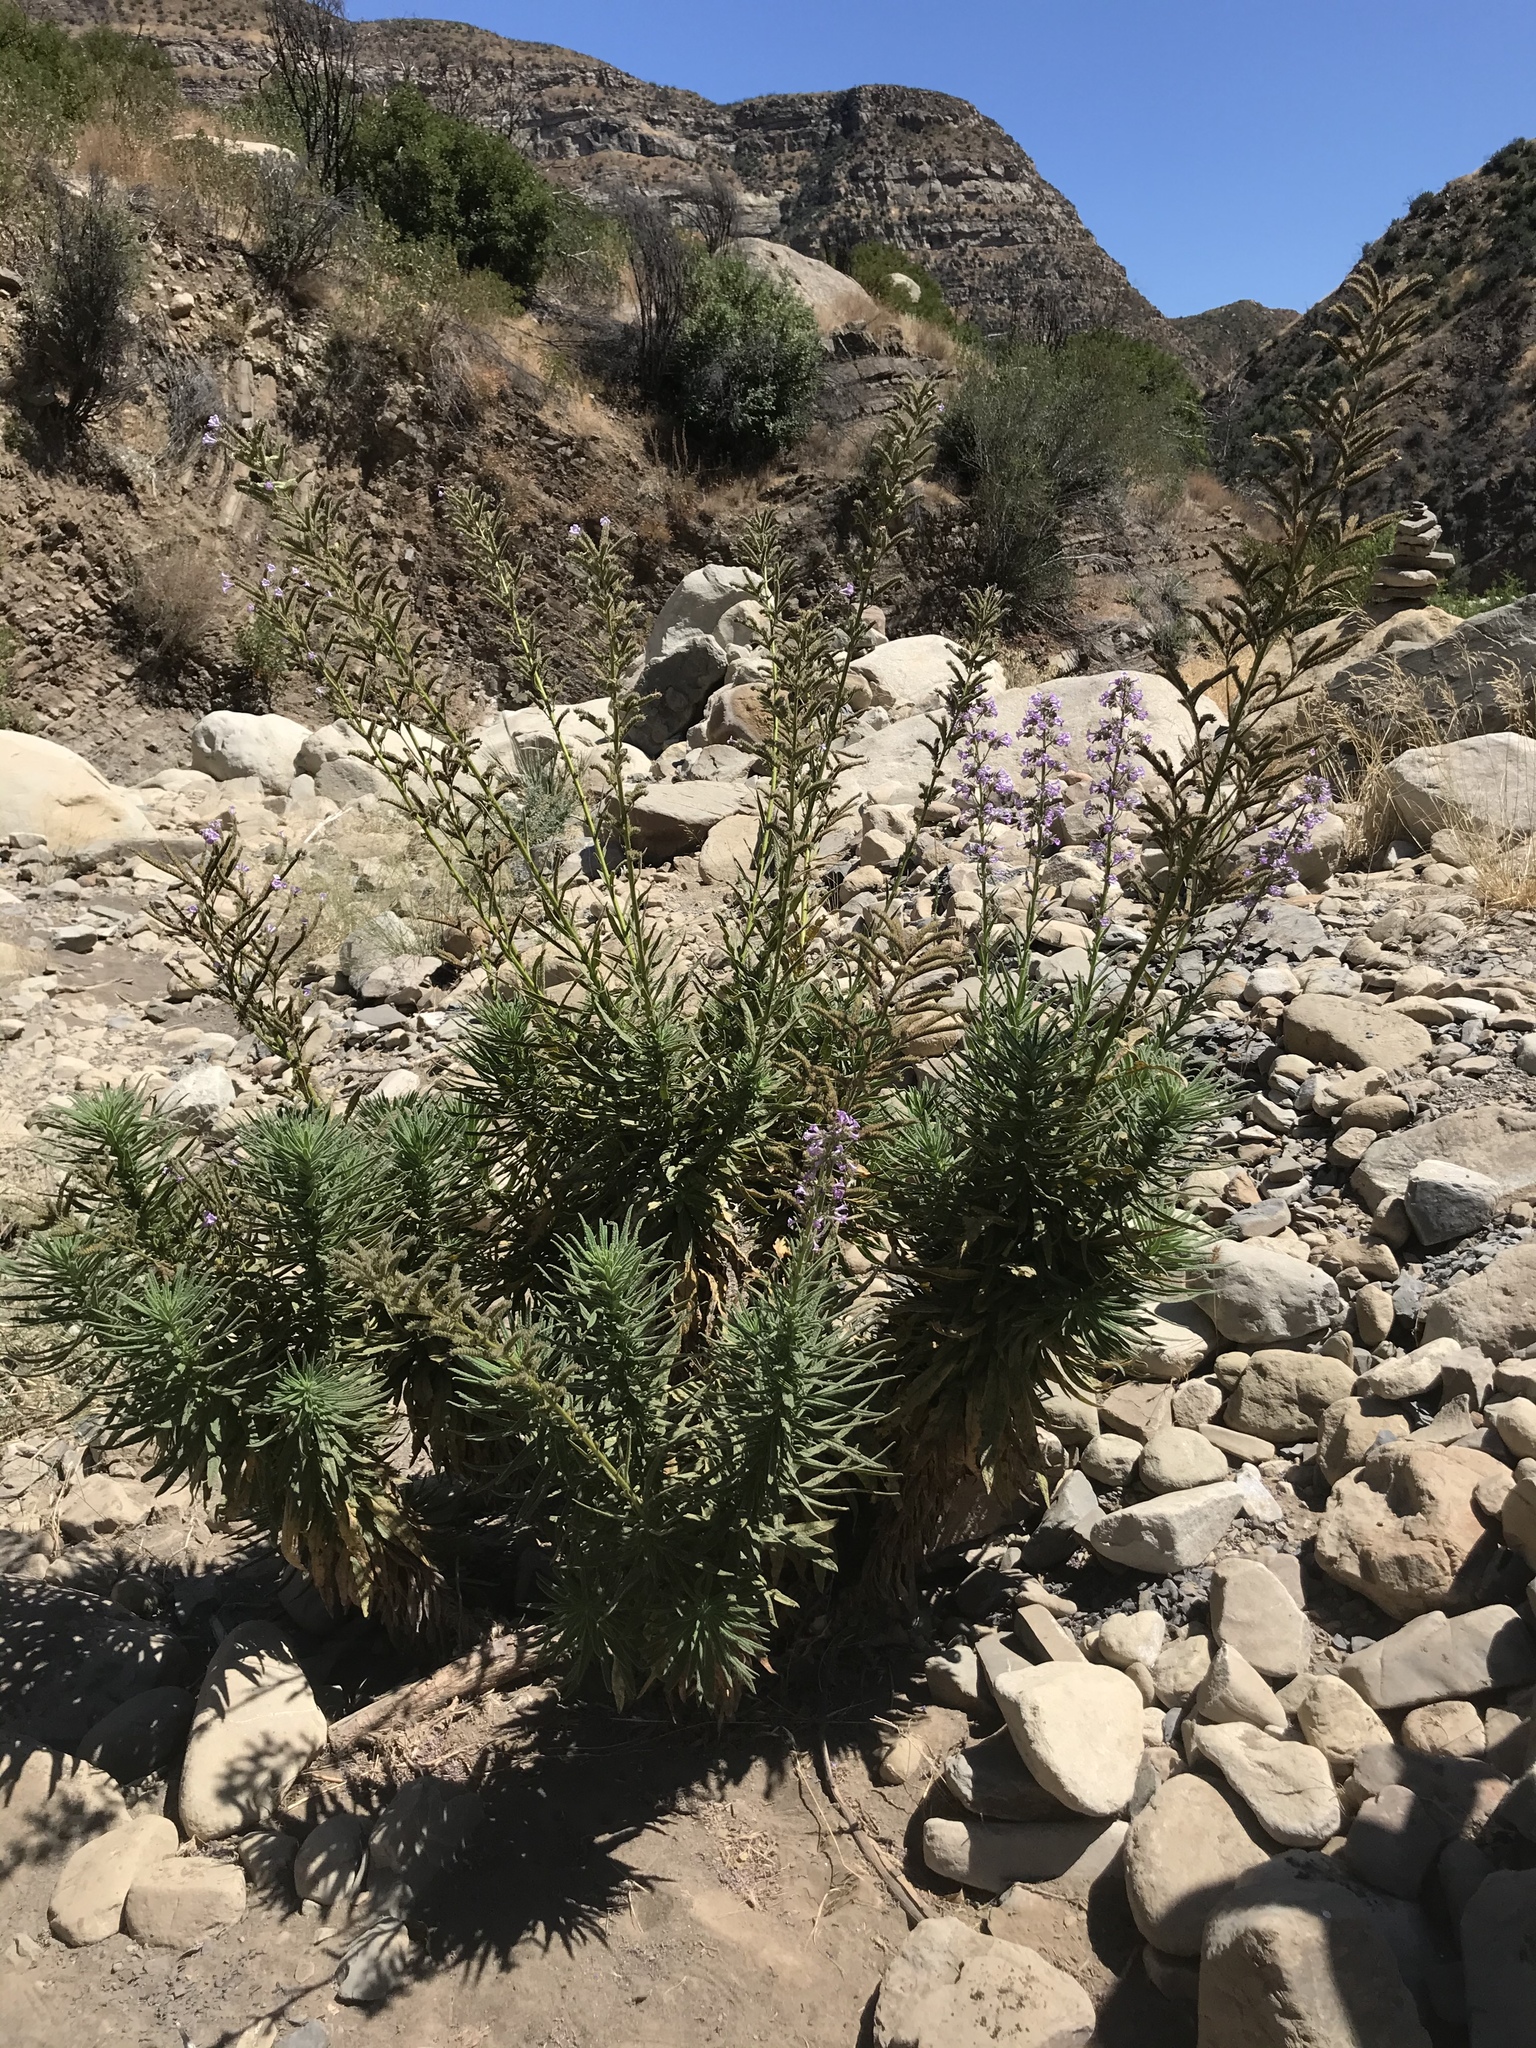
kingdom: Plantae
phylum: Tracheophyta
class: Magnoliopsida
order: Boraginales
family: Namaceae
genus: Turricula
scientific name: Turricula parryi
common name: Poodle-dog-bush
